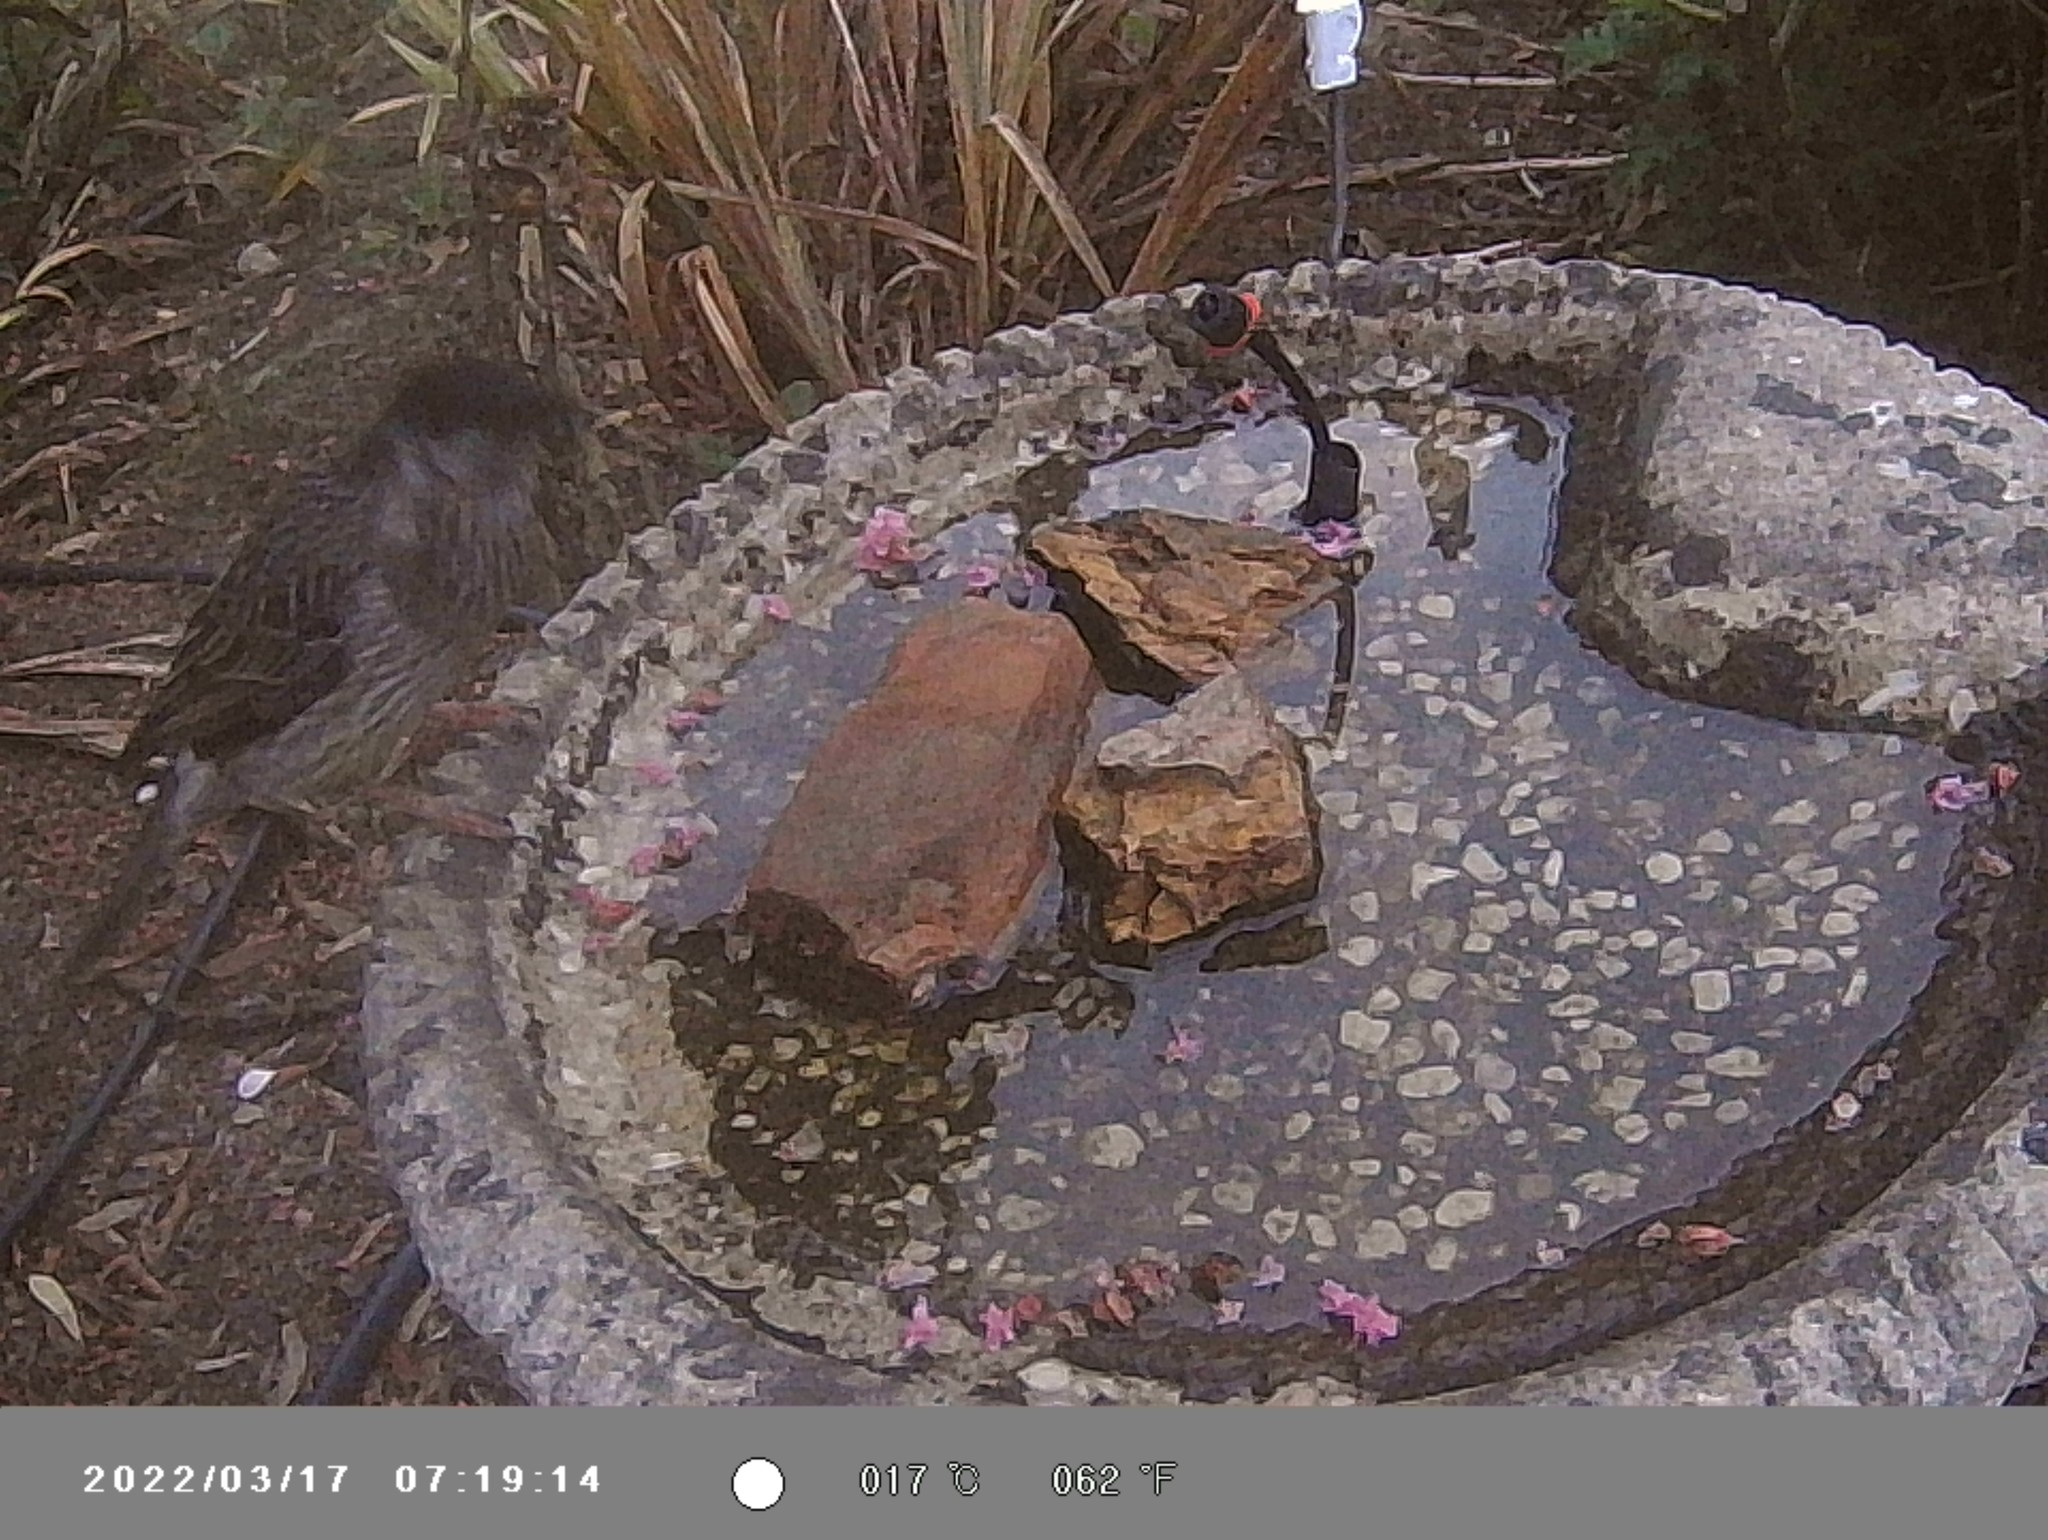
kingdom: Animalia
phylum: Chordata
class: Aves
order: Passeriformes
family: Meliphagidae
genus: Anthochaera
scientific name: Anthochaera carunculata
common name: Red wattlebird
